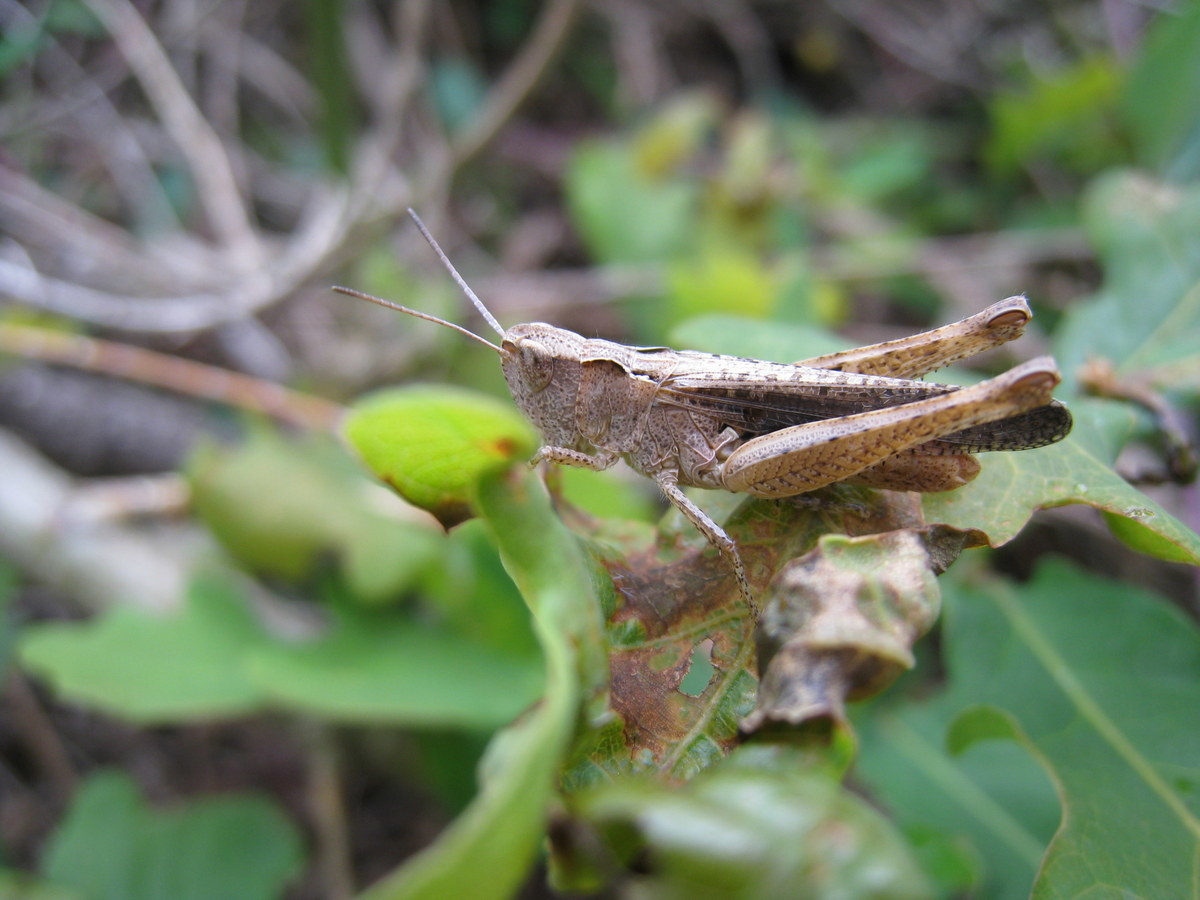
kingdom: Animalia
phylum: Arthropoda
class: Insecta
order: Orthoptera
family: Acrididae
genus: Chorthippus
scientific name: Chorthippus vagans
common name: Heath grasshopper
